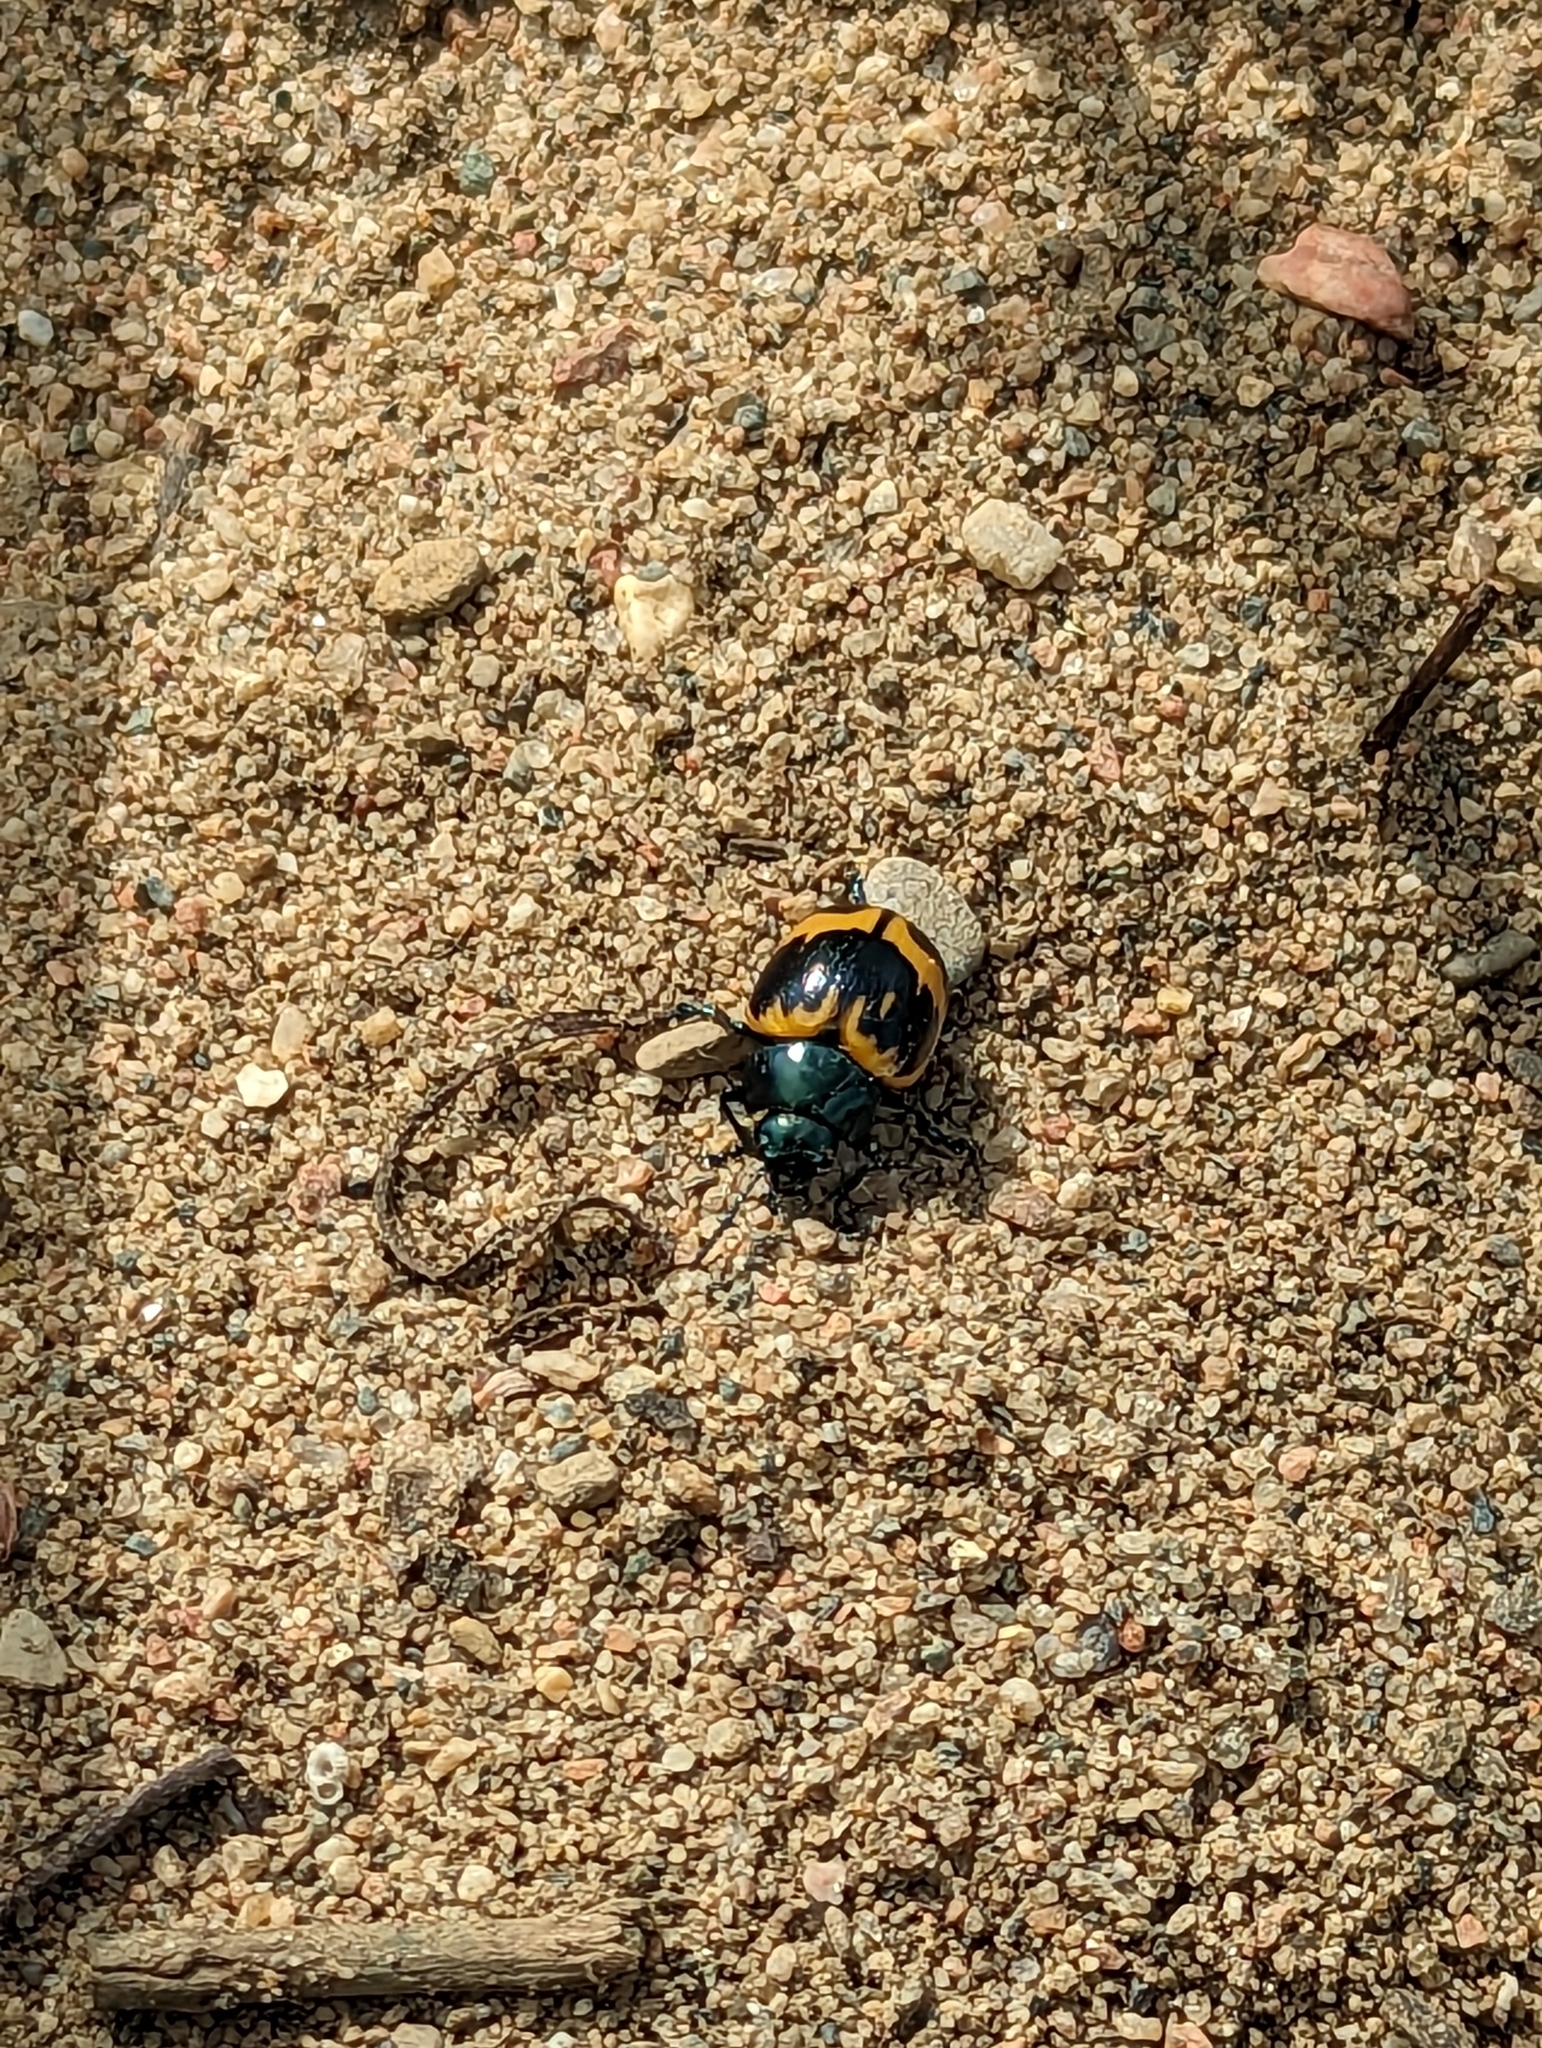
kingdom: Animalia
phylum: Arthropoda
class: Insecta
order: Coleoptera
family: Chrysomelidae
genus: Labidomera
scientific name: Labidomera clivicollis
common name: Swamp milkweed leaf beetle
